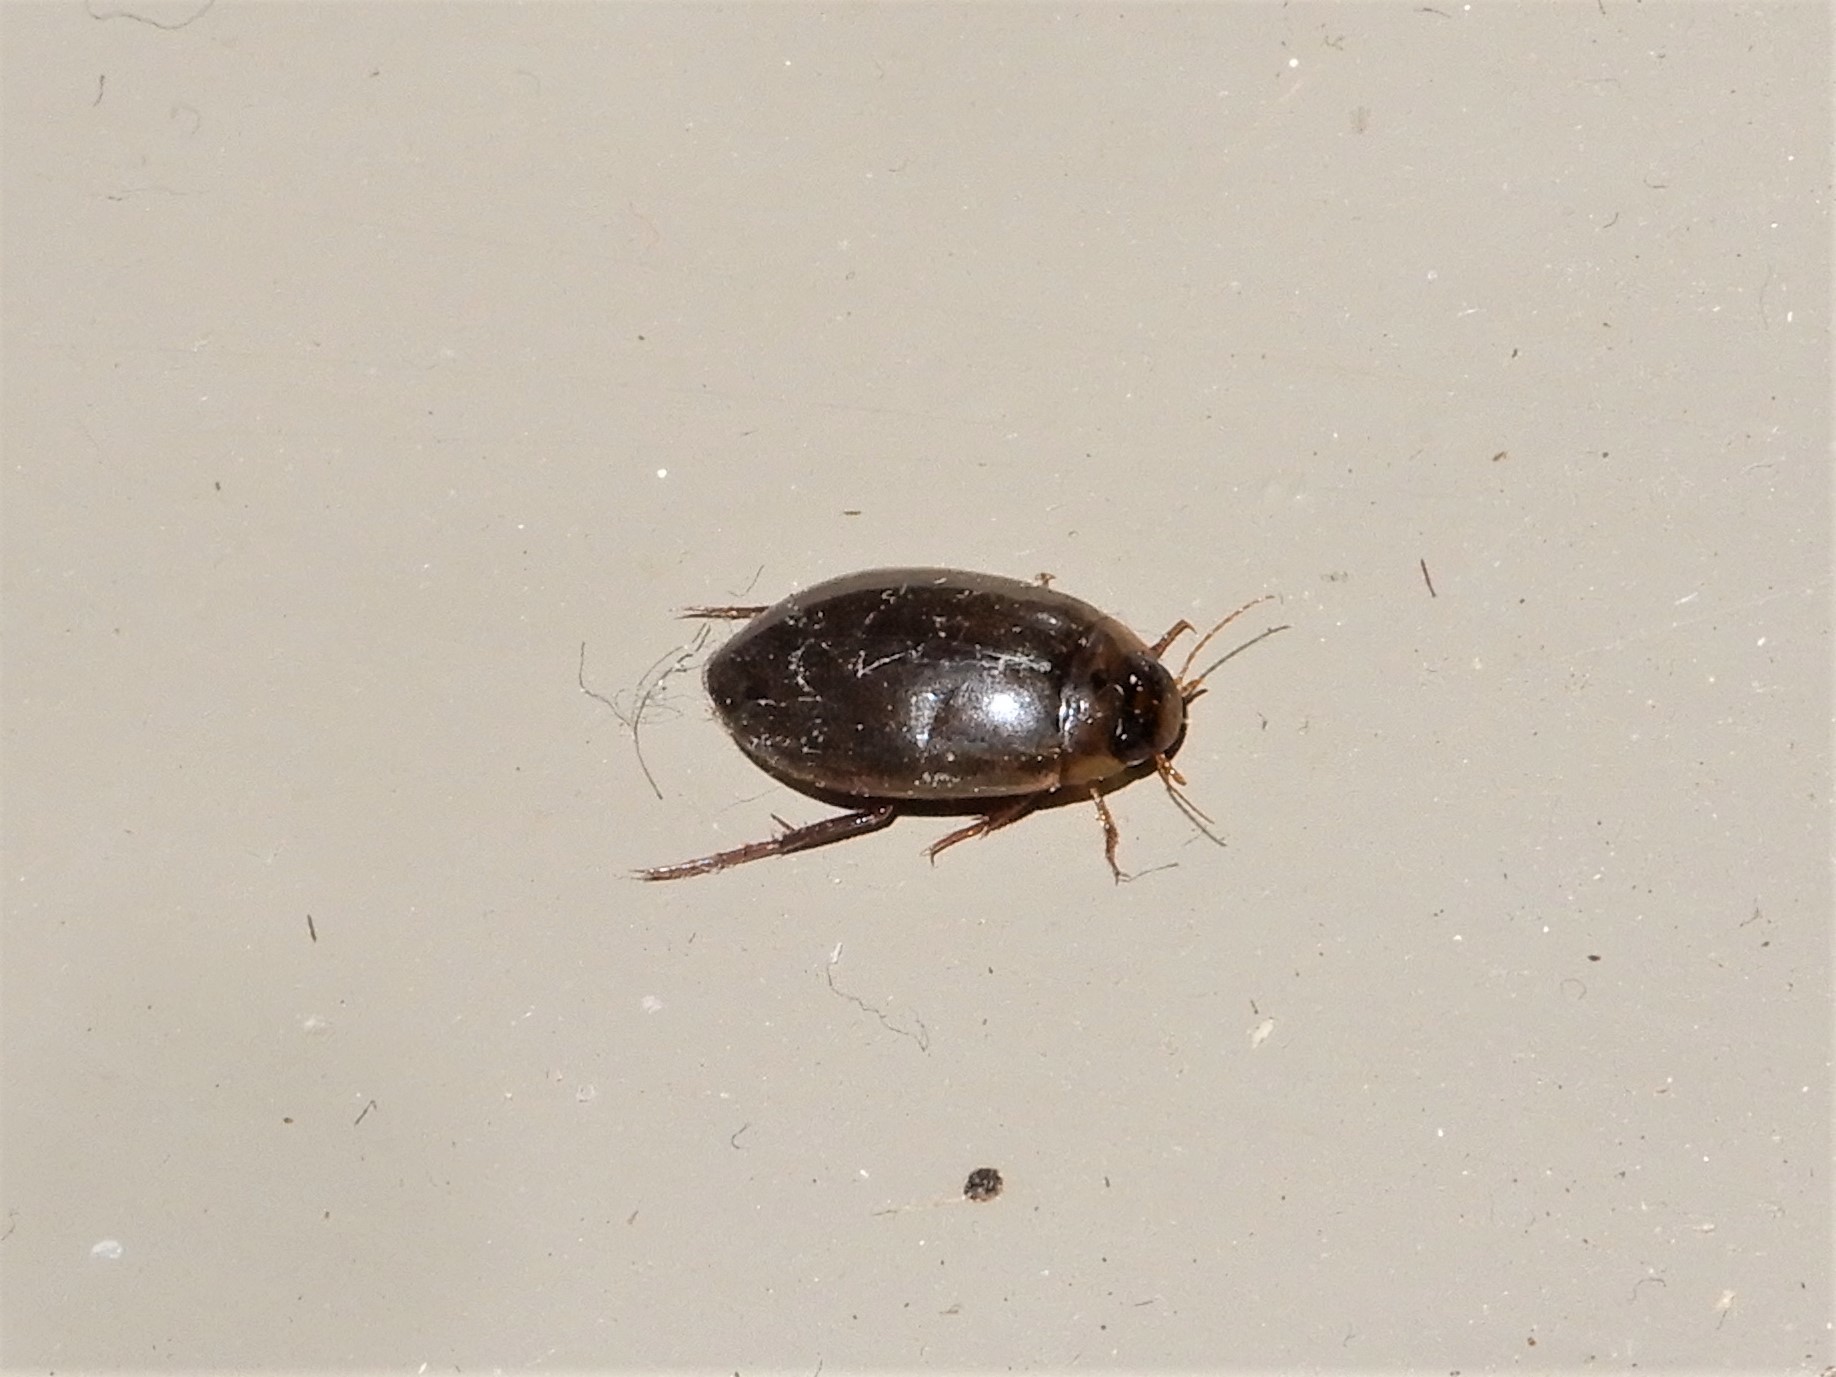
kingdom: Animalia
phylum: Arthropoda
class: Insecta
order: Coleoptera
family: Dytiscidae
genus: Rhantus
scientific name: Rhantus suturalis
